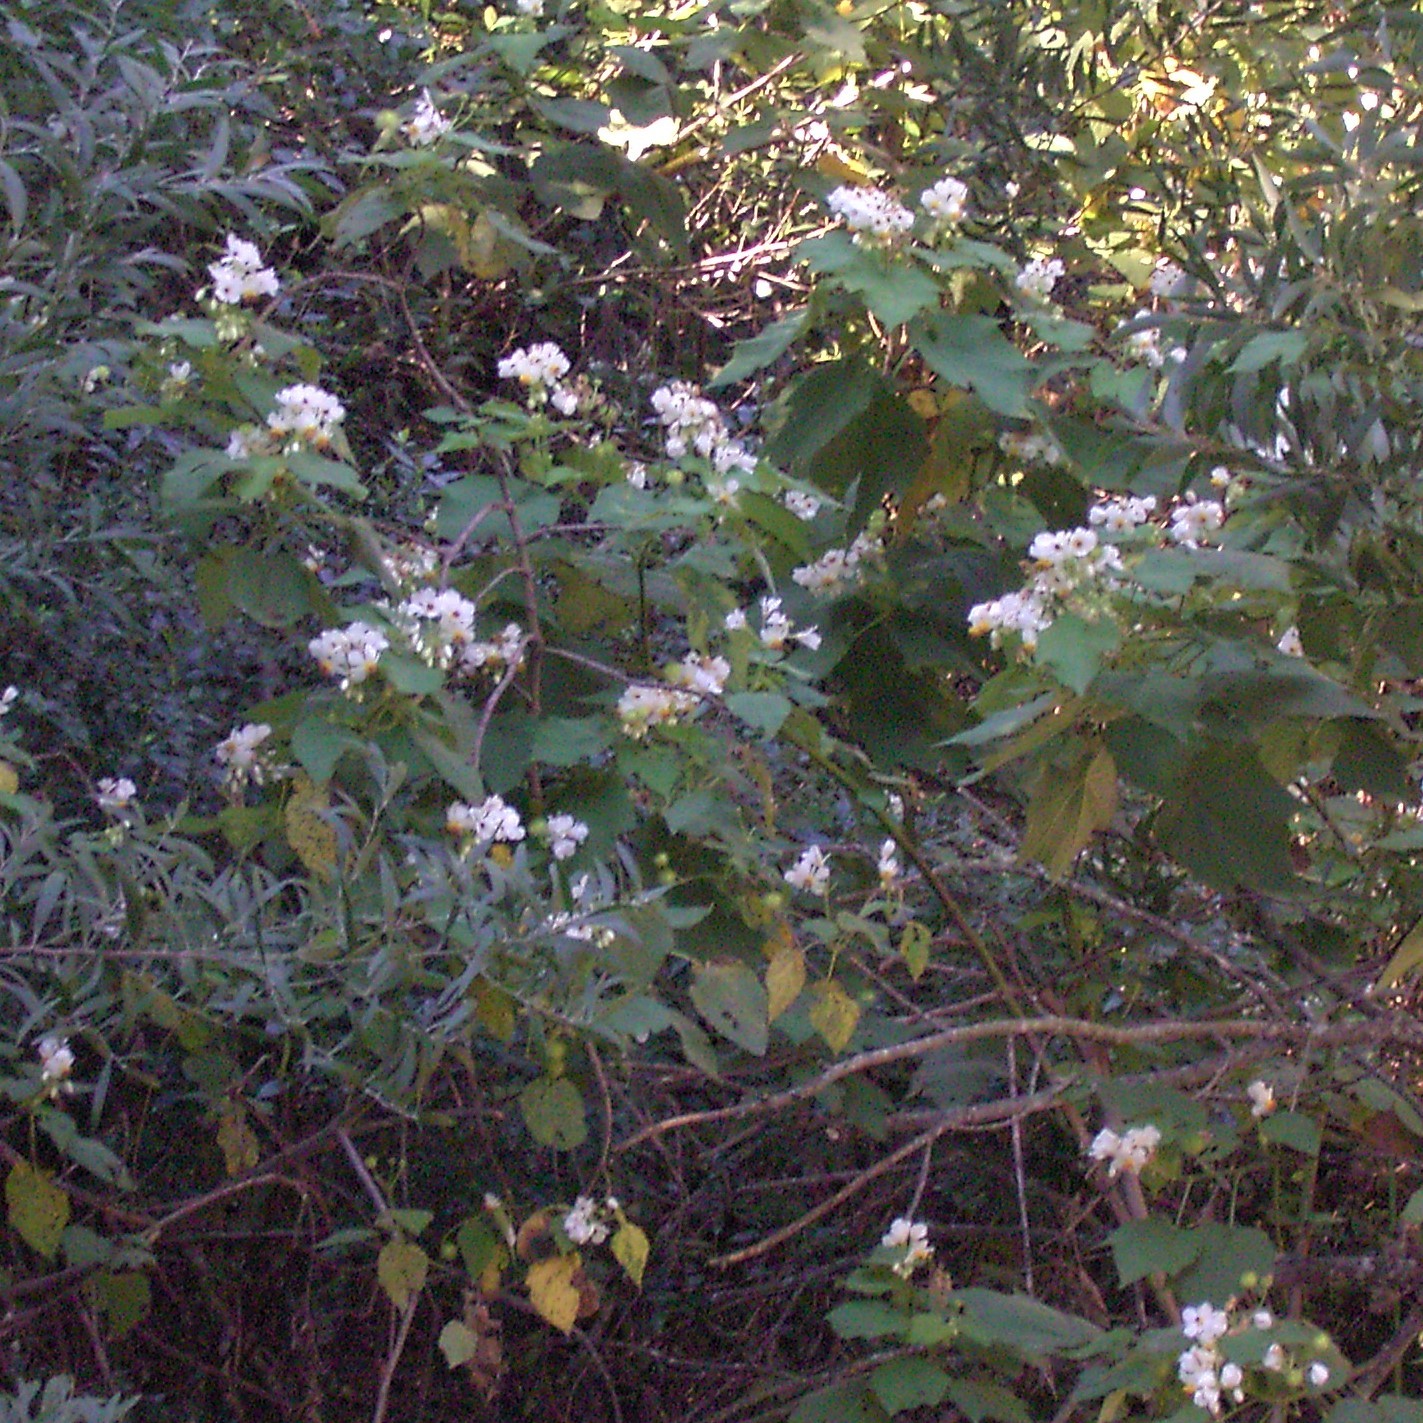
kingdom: Plantae
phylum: Tracheophyta
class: Magnoliopsida
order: Malvales
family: Malvaceae
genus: Sparrmannia
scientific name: Sparrmannia africana
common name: African-hemp
